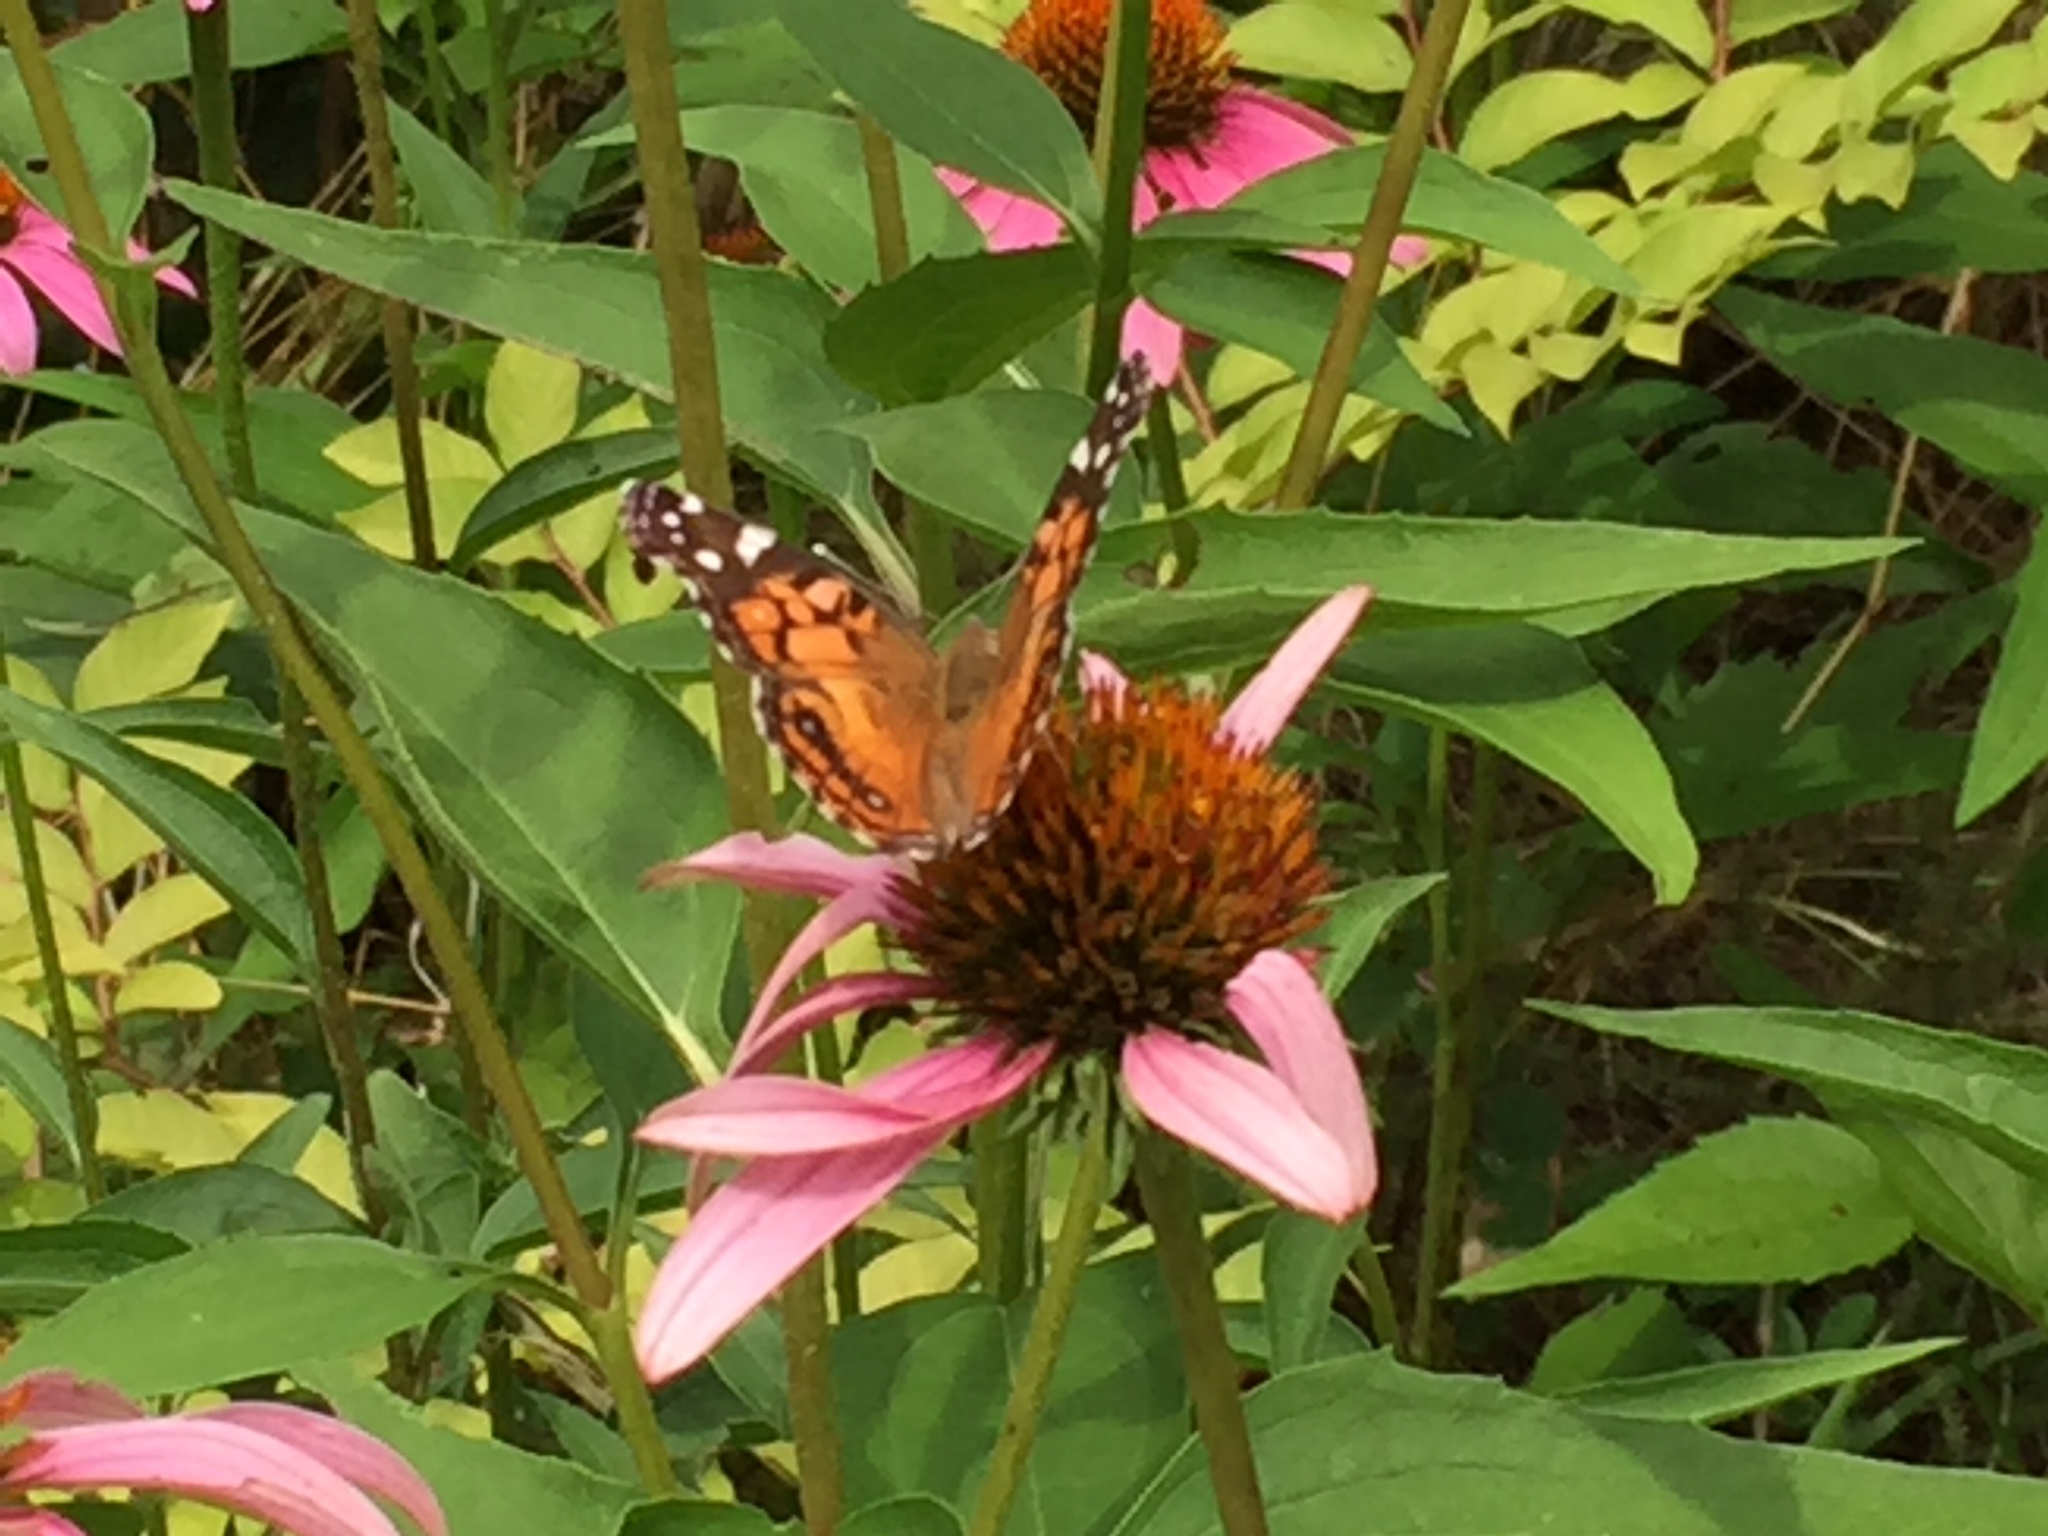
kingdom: Animalia
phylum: Arthropoda
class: Insecta
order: Lepidoptera
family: Nymphalidae
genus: Vanessa
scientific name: Vanessa virginiensis
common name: American lady
